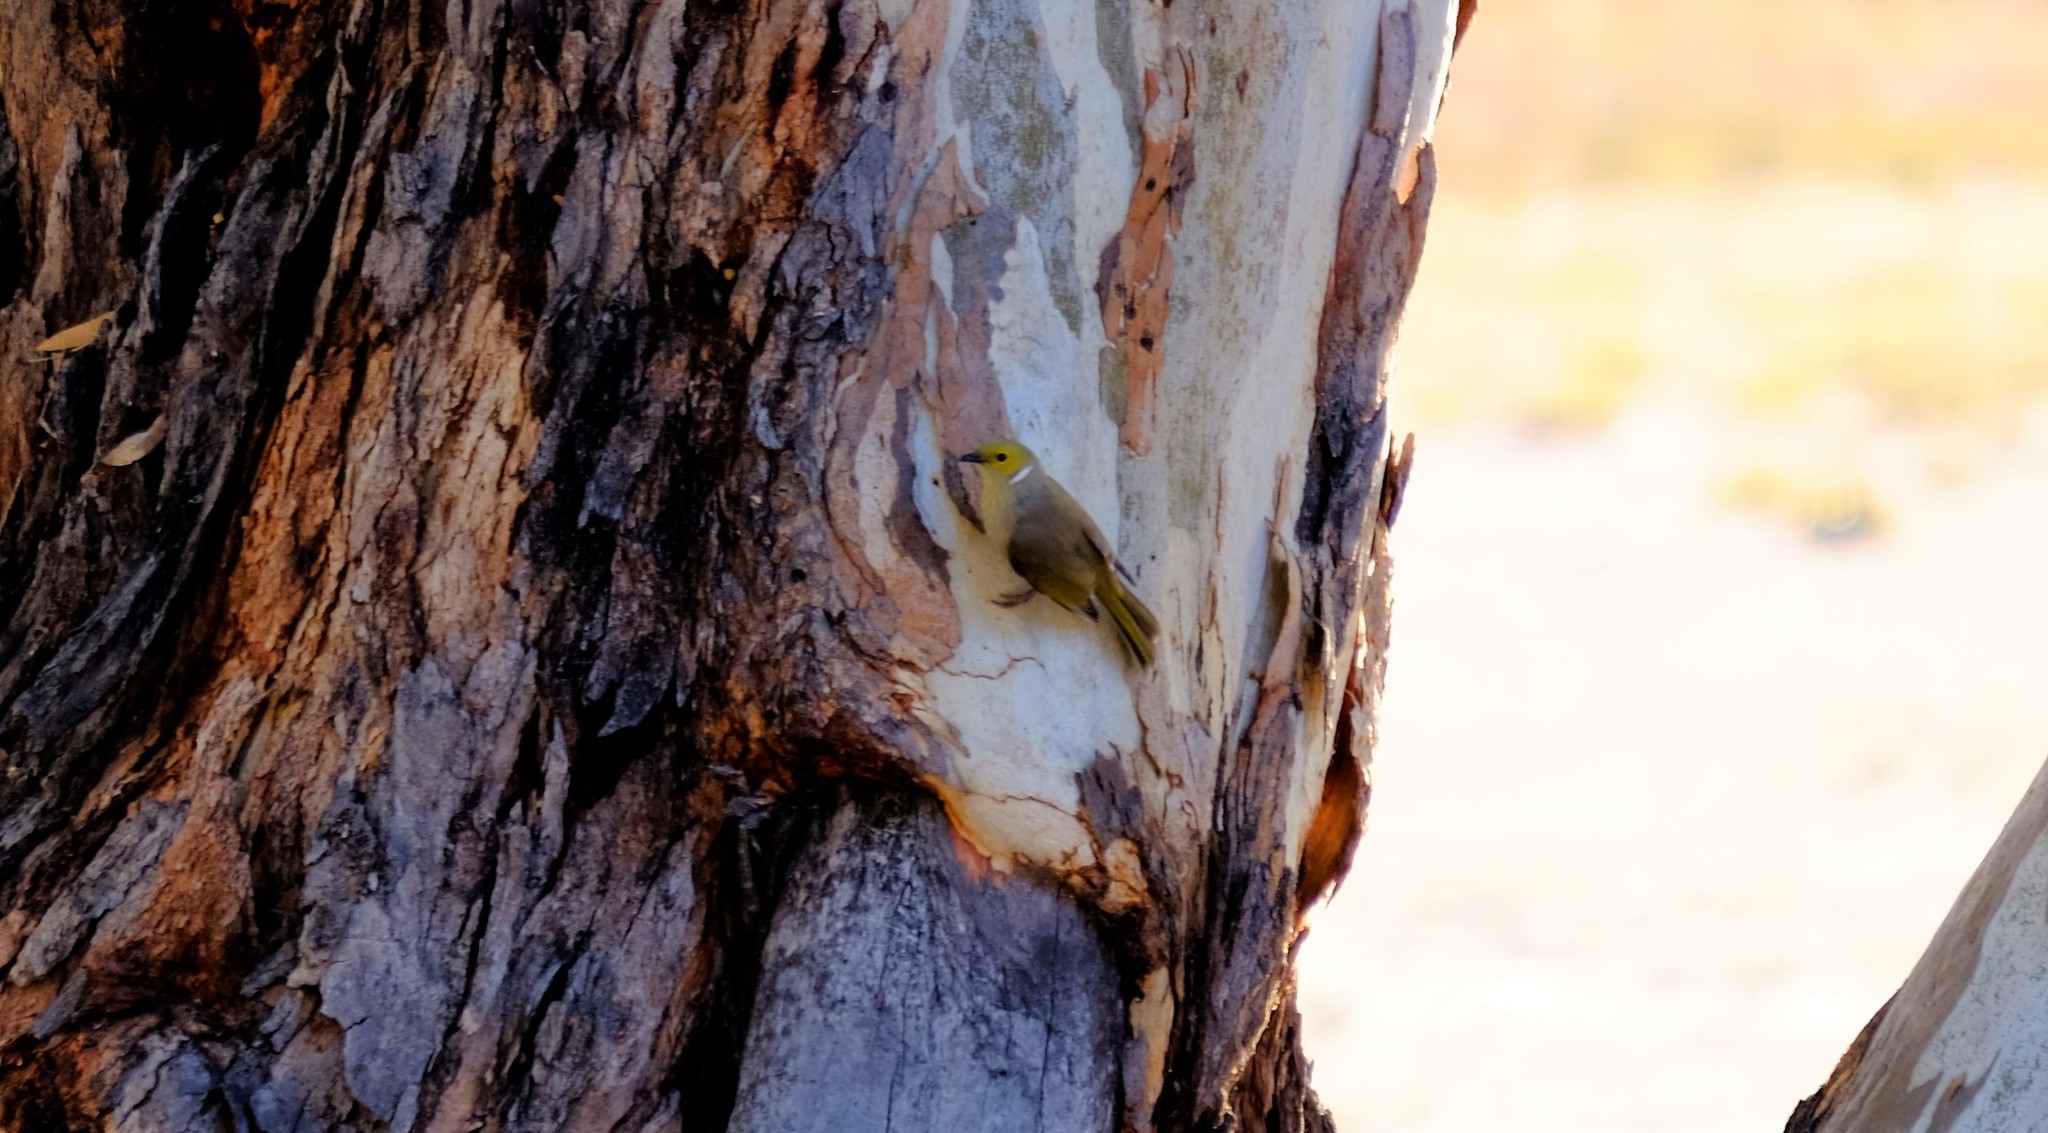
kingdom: Animalia
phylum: Chordata
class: Aves
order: Passeriformes
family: Meliphagidae
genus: Ptilotula
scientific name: Ptilotula penicillata
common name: White-plumed honeyeater
